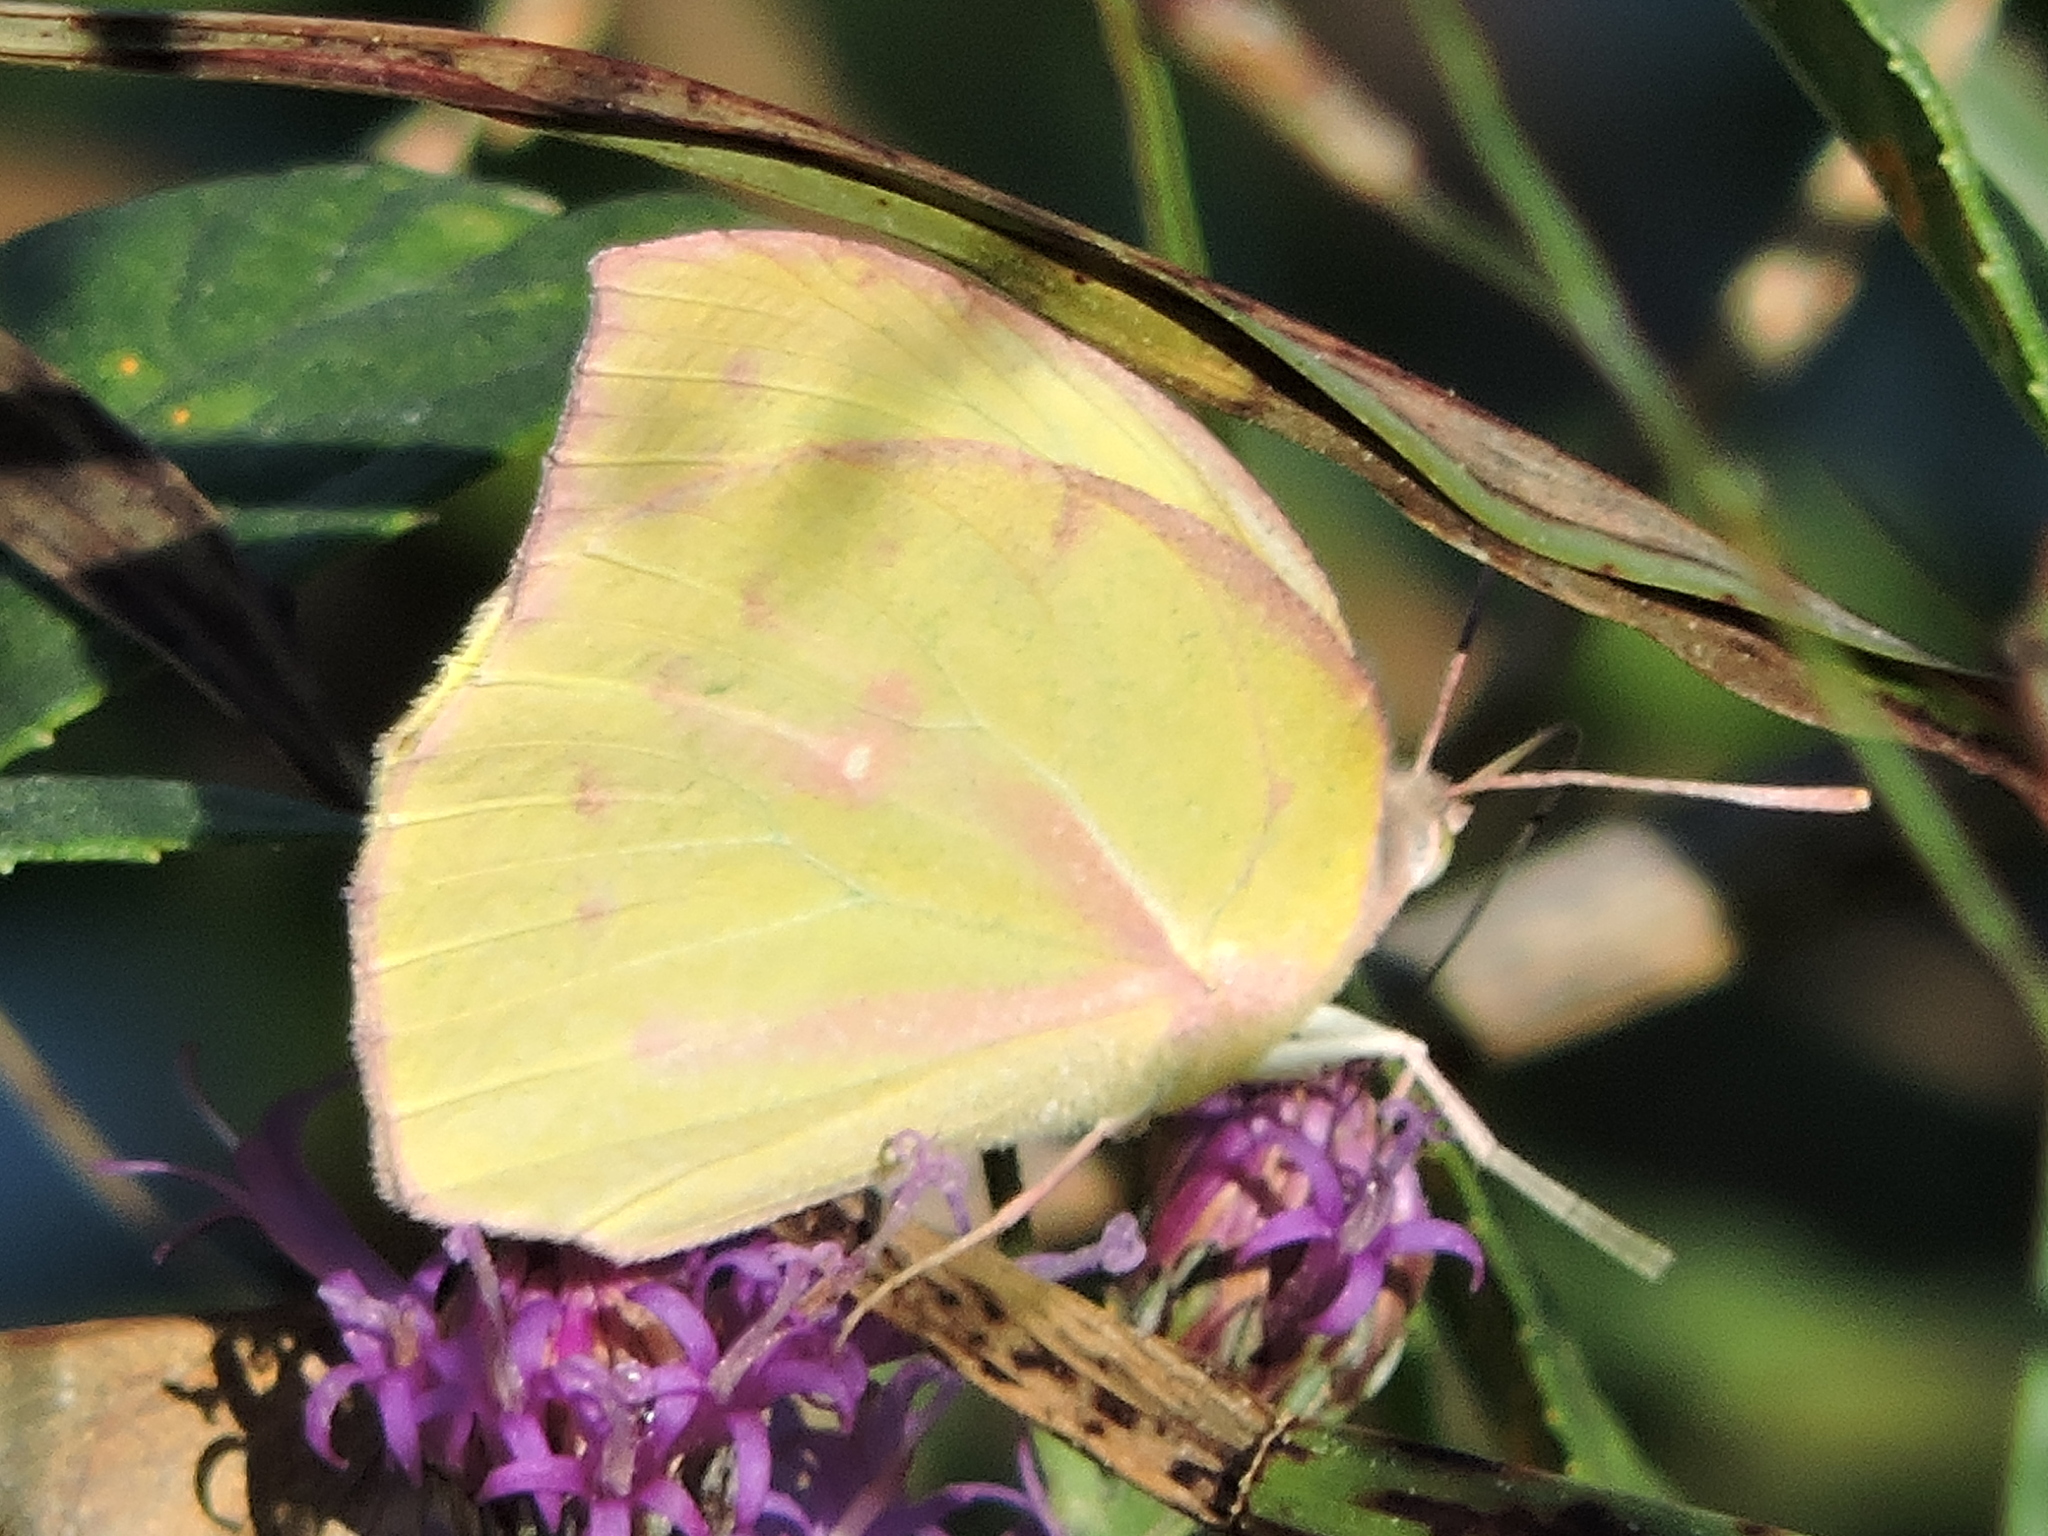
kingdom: Animalia
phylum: Arthropoda
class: Insecta
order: Lepidoptera
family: Pieridae
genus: Zerene
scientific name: Zerene cesonia
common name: Southern dogface
